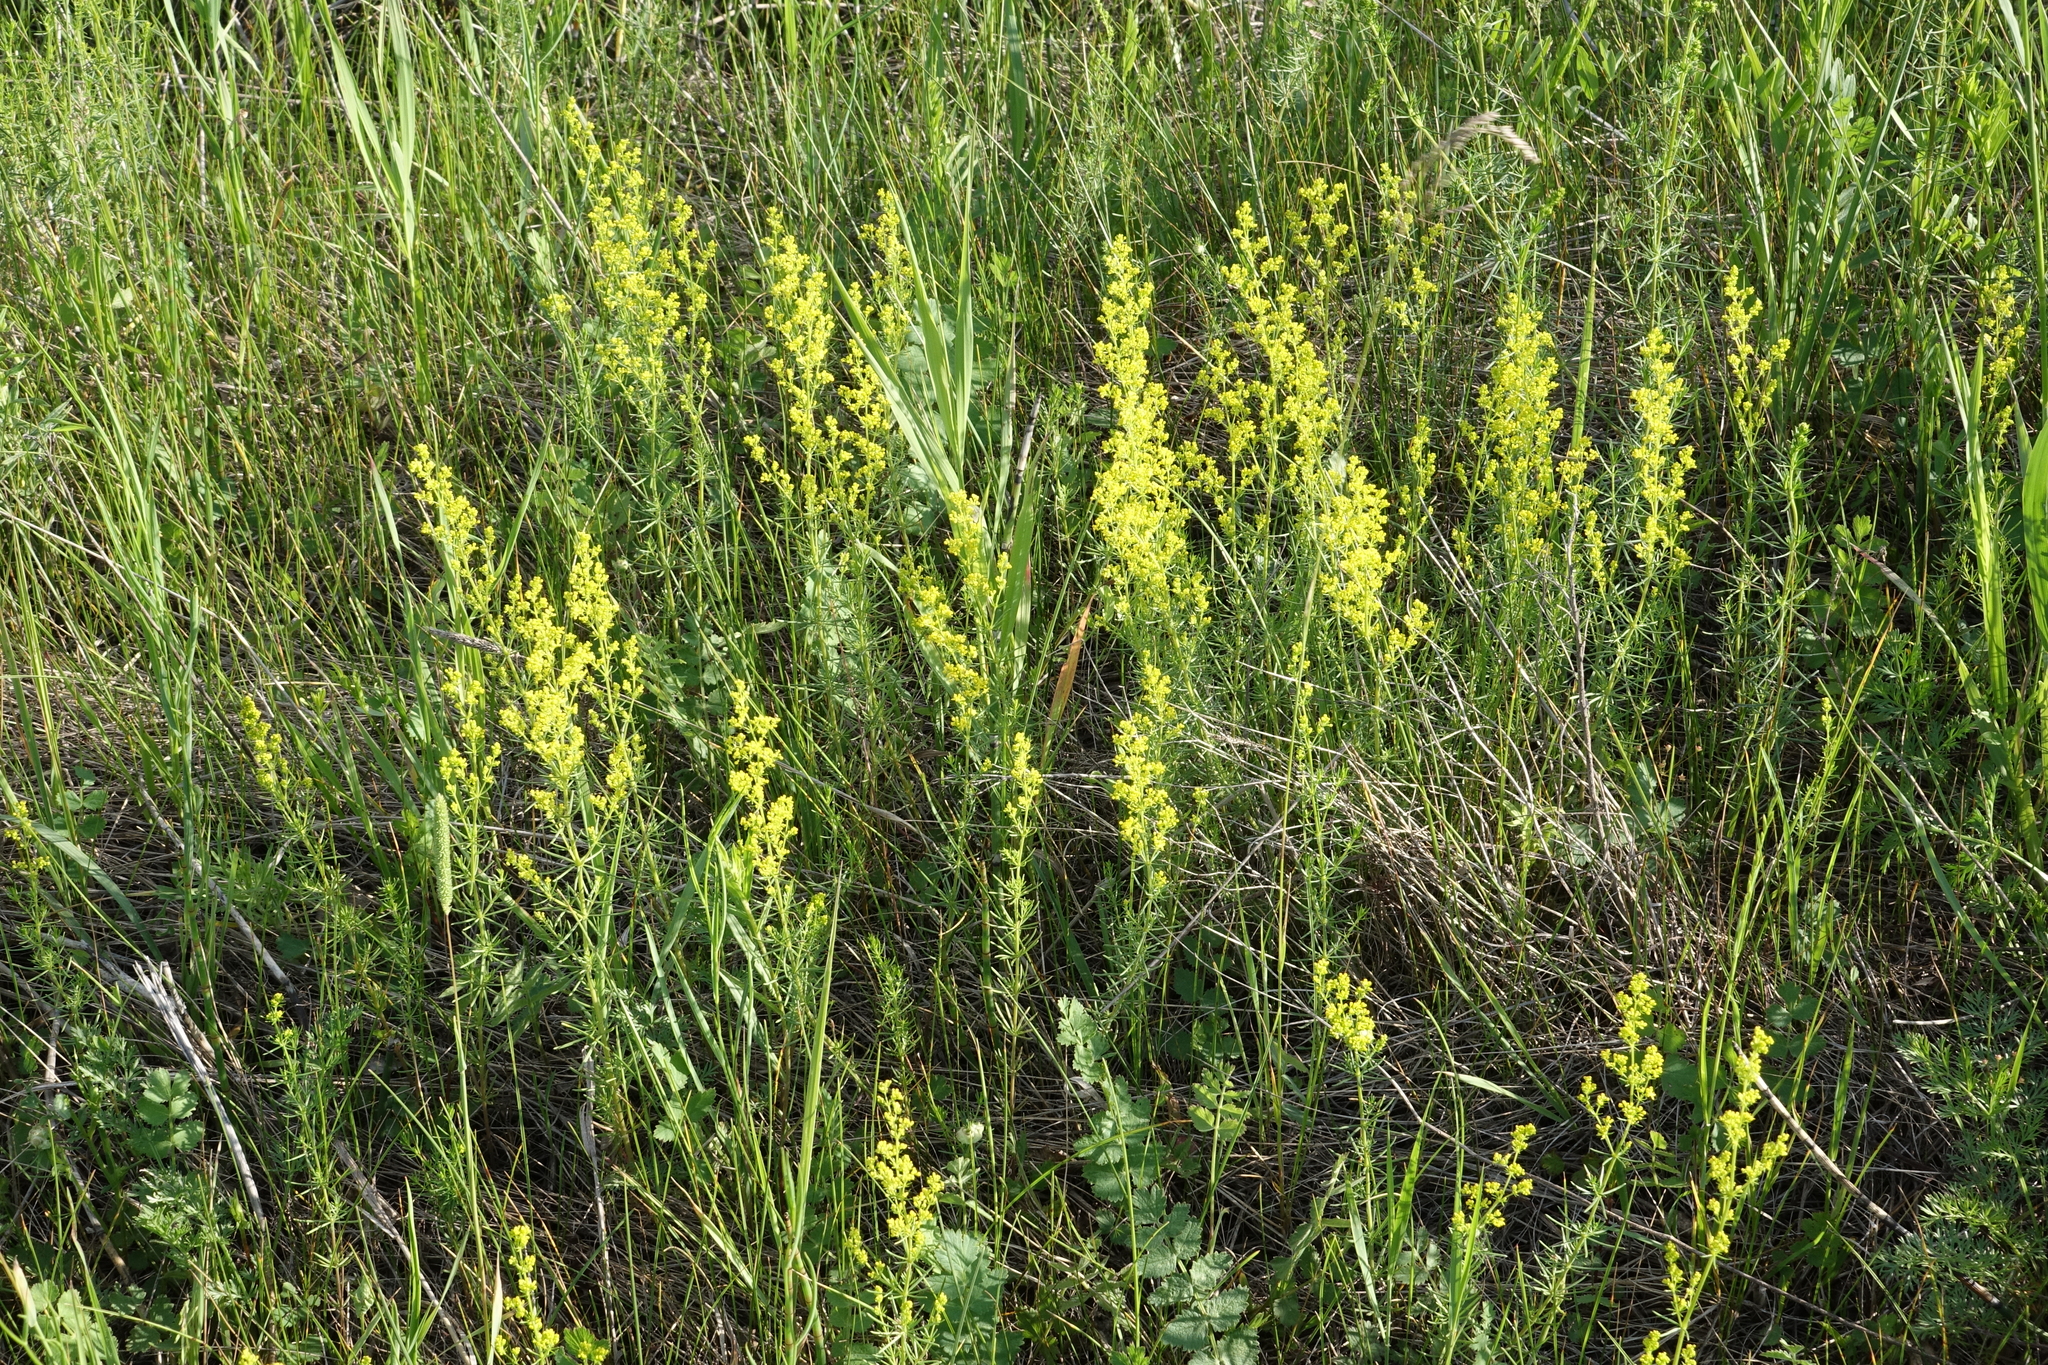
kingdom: Plantae
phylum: Tracheophyta
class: Magnoliopsida
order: Gentianales
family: Rubiaceae
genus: Galium
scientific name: Galium verum
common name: Lady's bedstraw
